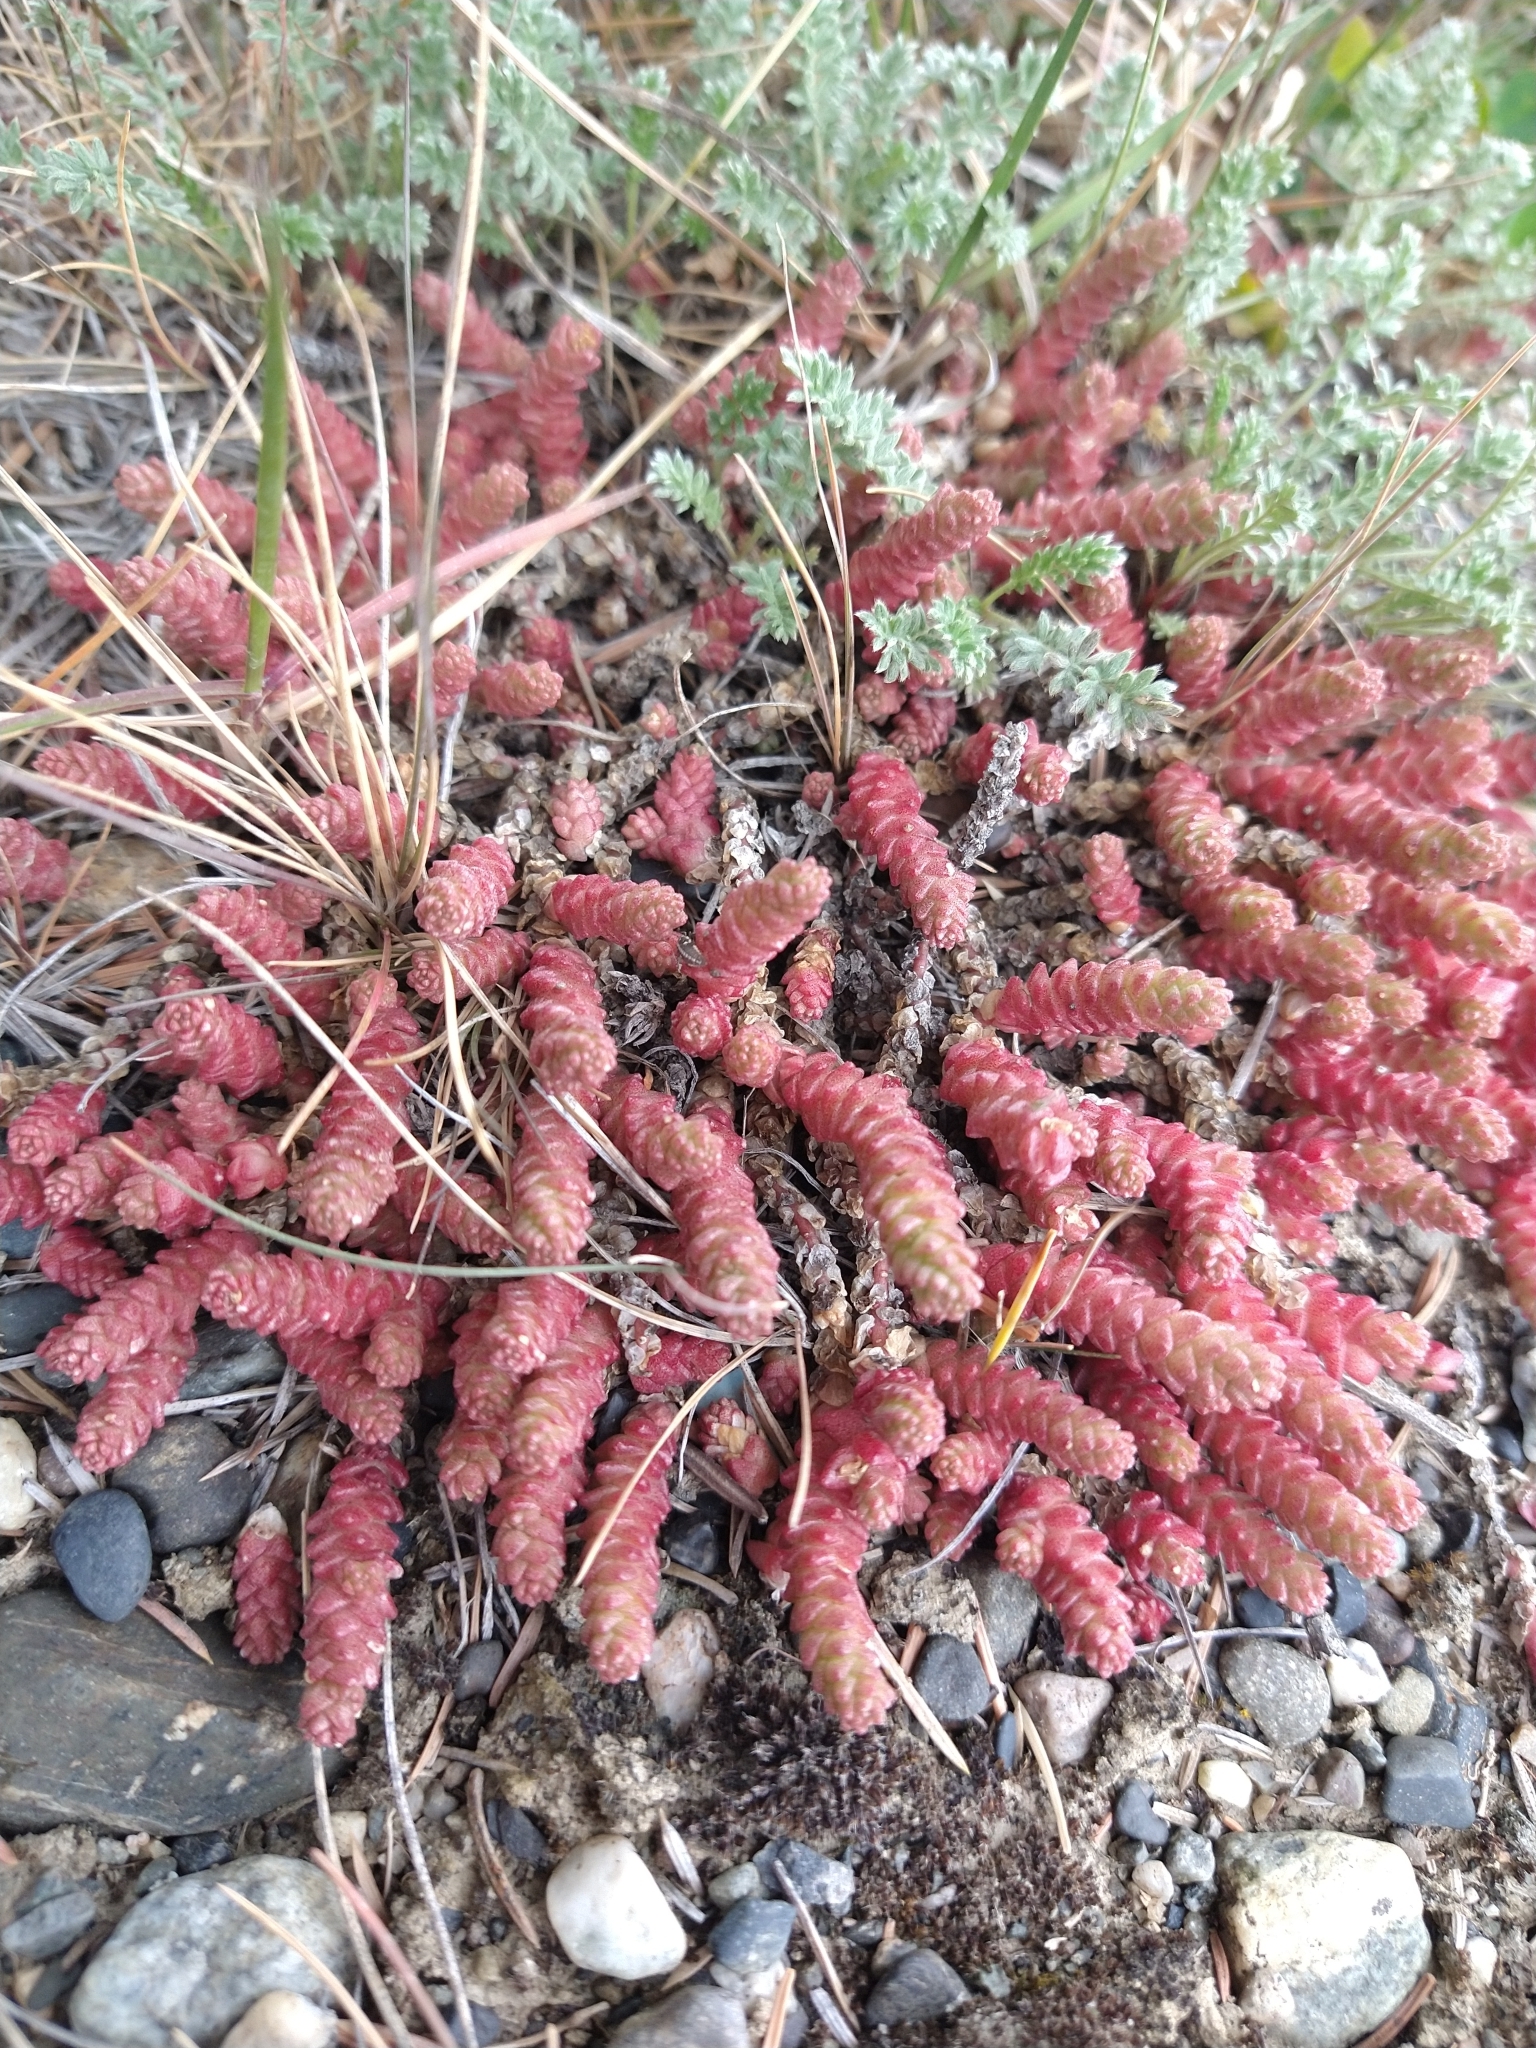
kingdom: Plantae
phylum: Tracheophyta
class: Magnoliopsida
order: Saxifragales
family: Crassulaceae
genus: Sedum
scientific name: Sedum acre
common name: Biting stonecrop
